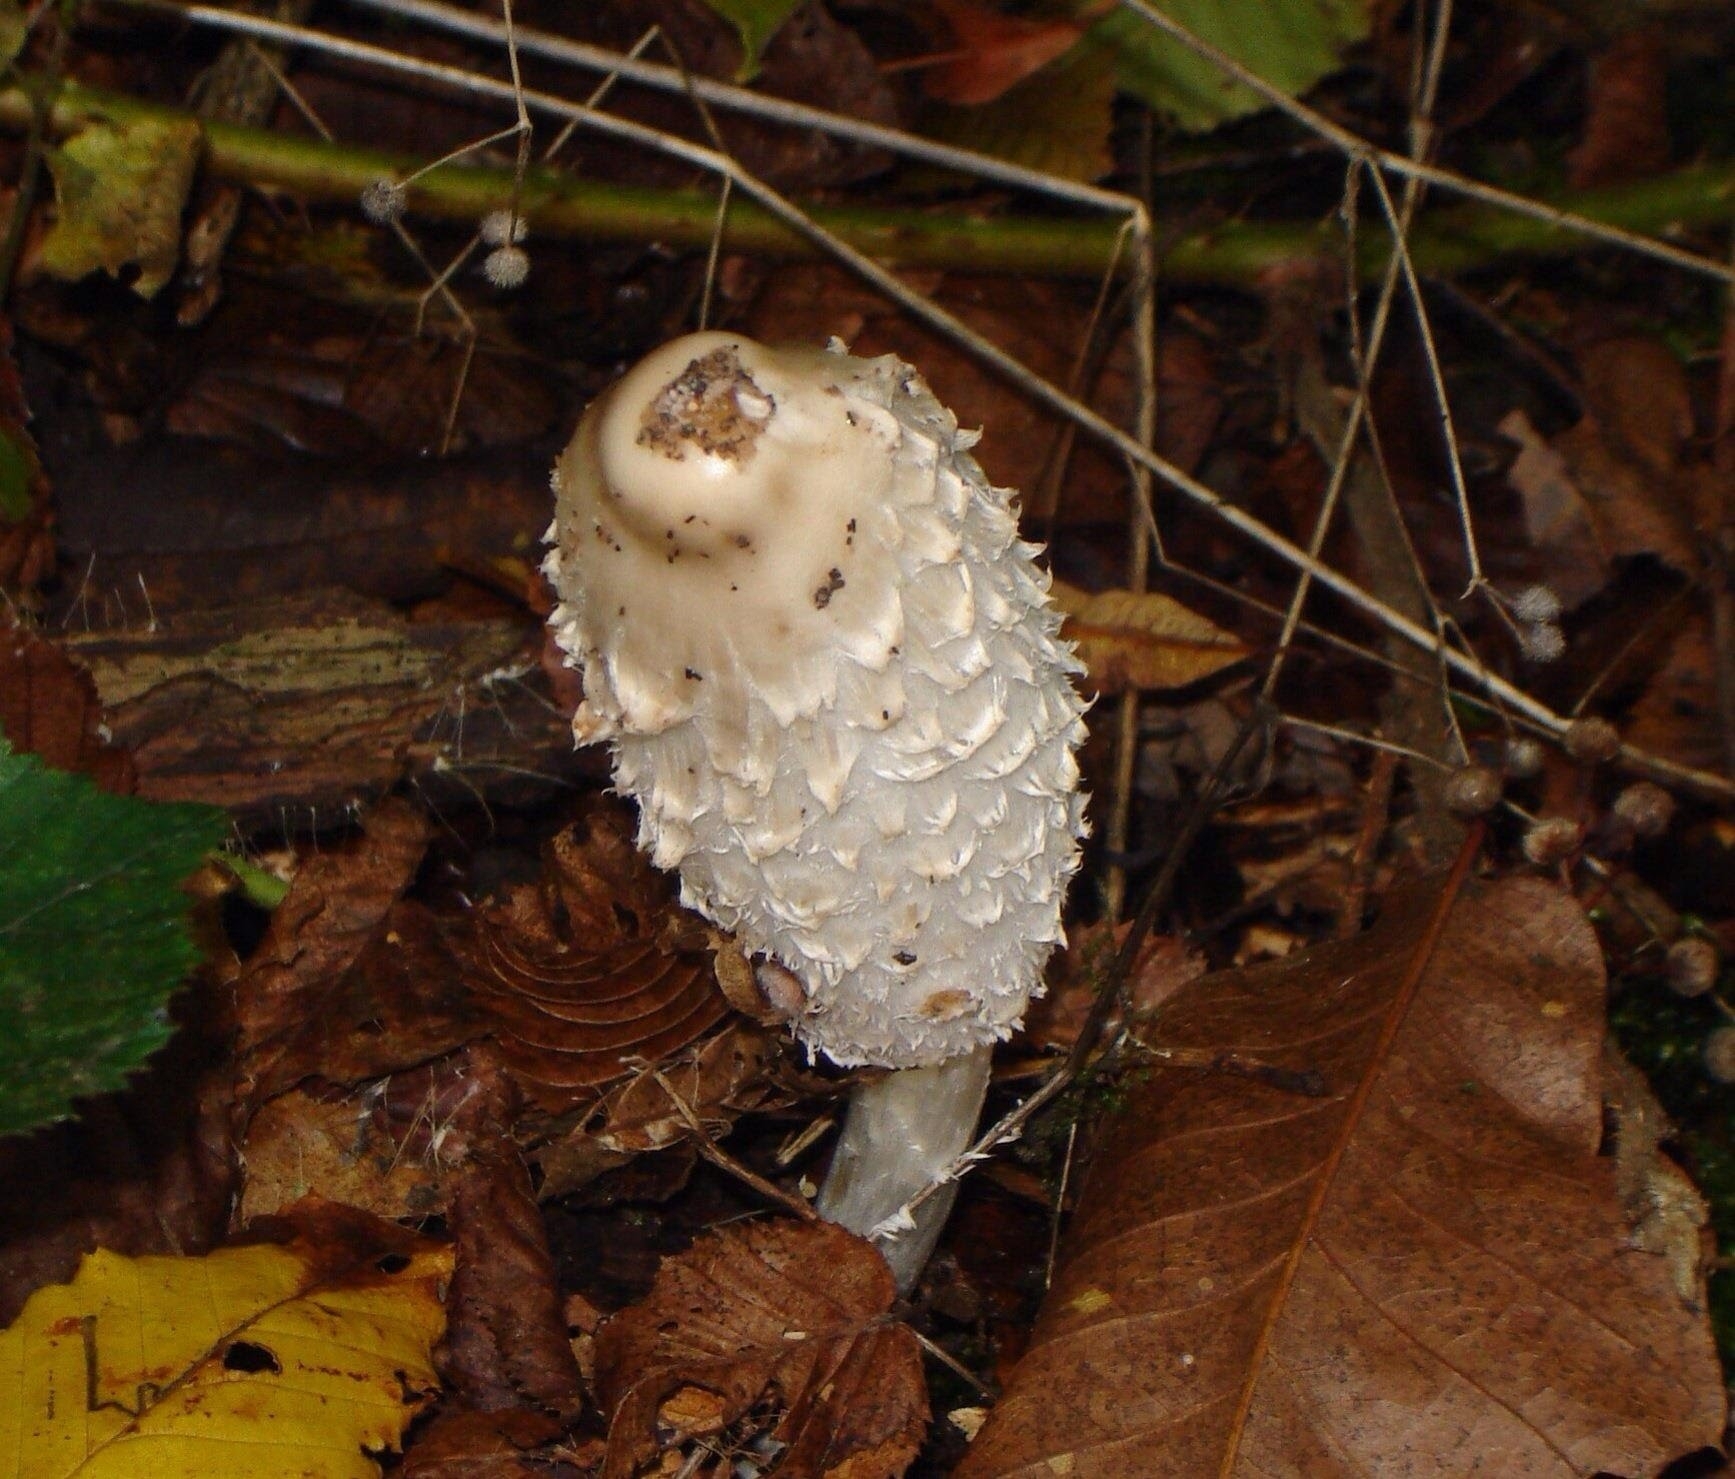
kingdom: Fungi
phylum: Basidiomycota
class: Agaricomycetes
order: Agaricales
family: Agaricaceae
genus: Coprinus
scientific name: Coprinus comatus
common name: Lawyer's wig
